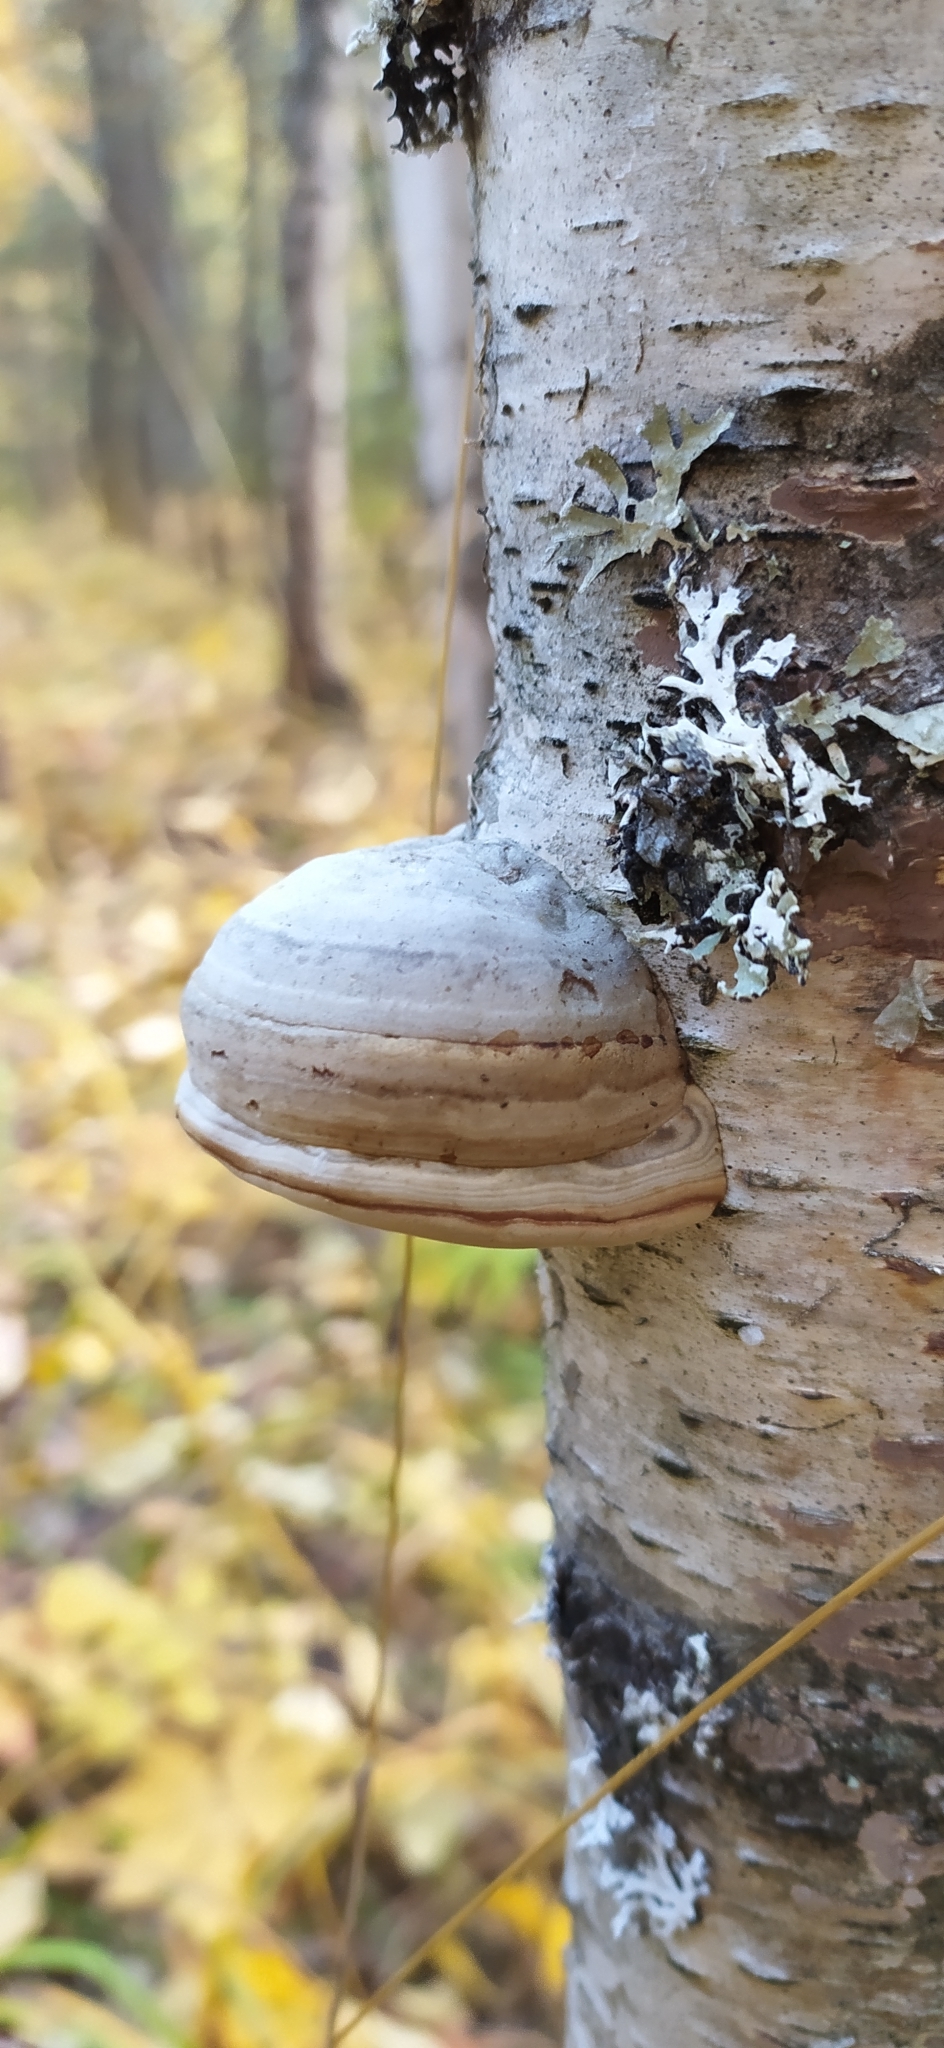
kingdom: Fungi
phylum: Basidiomycota
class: Agaricomycetes
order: Polyporales
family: Polyporaceae
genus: Fomes
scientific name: Fomes fomentarius
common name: Hoof fungus
